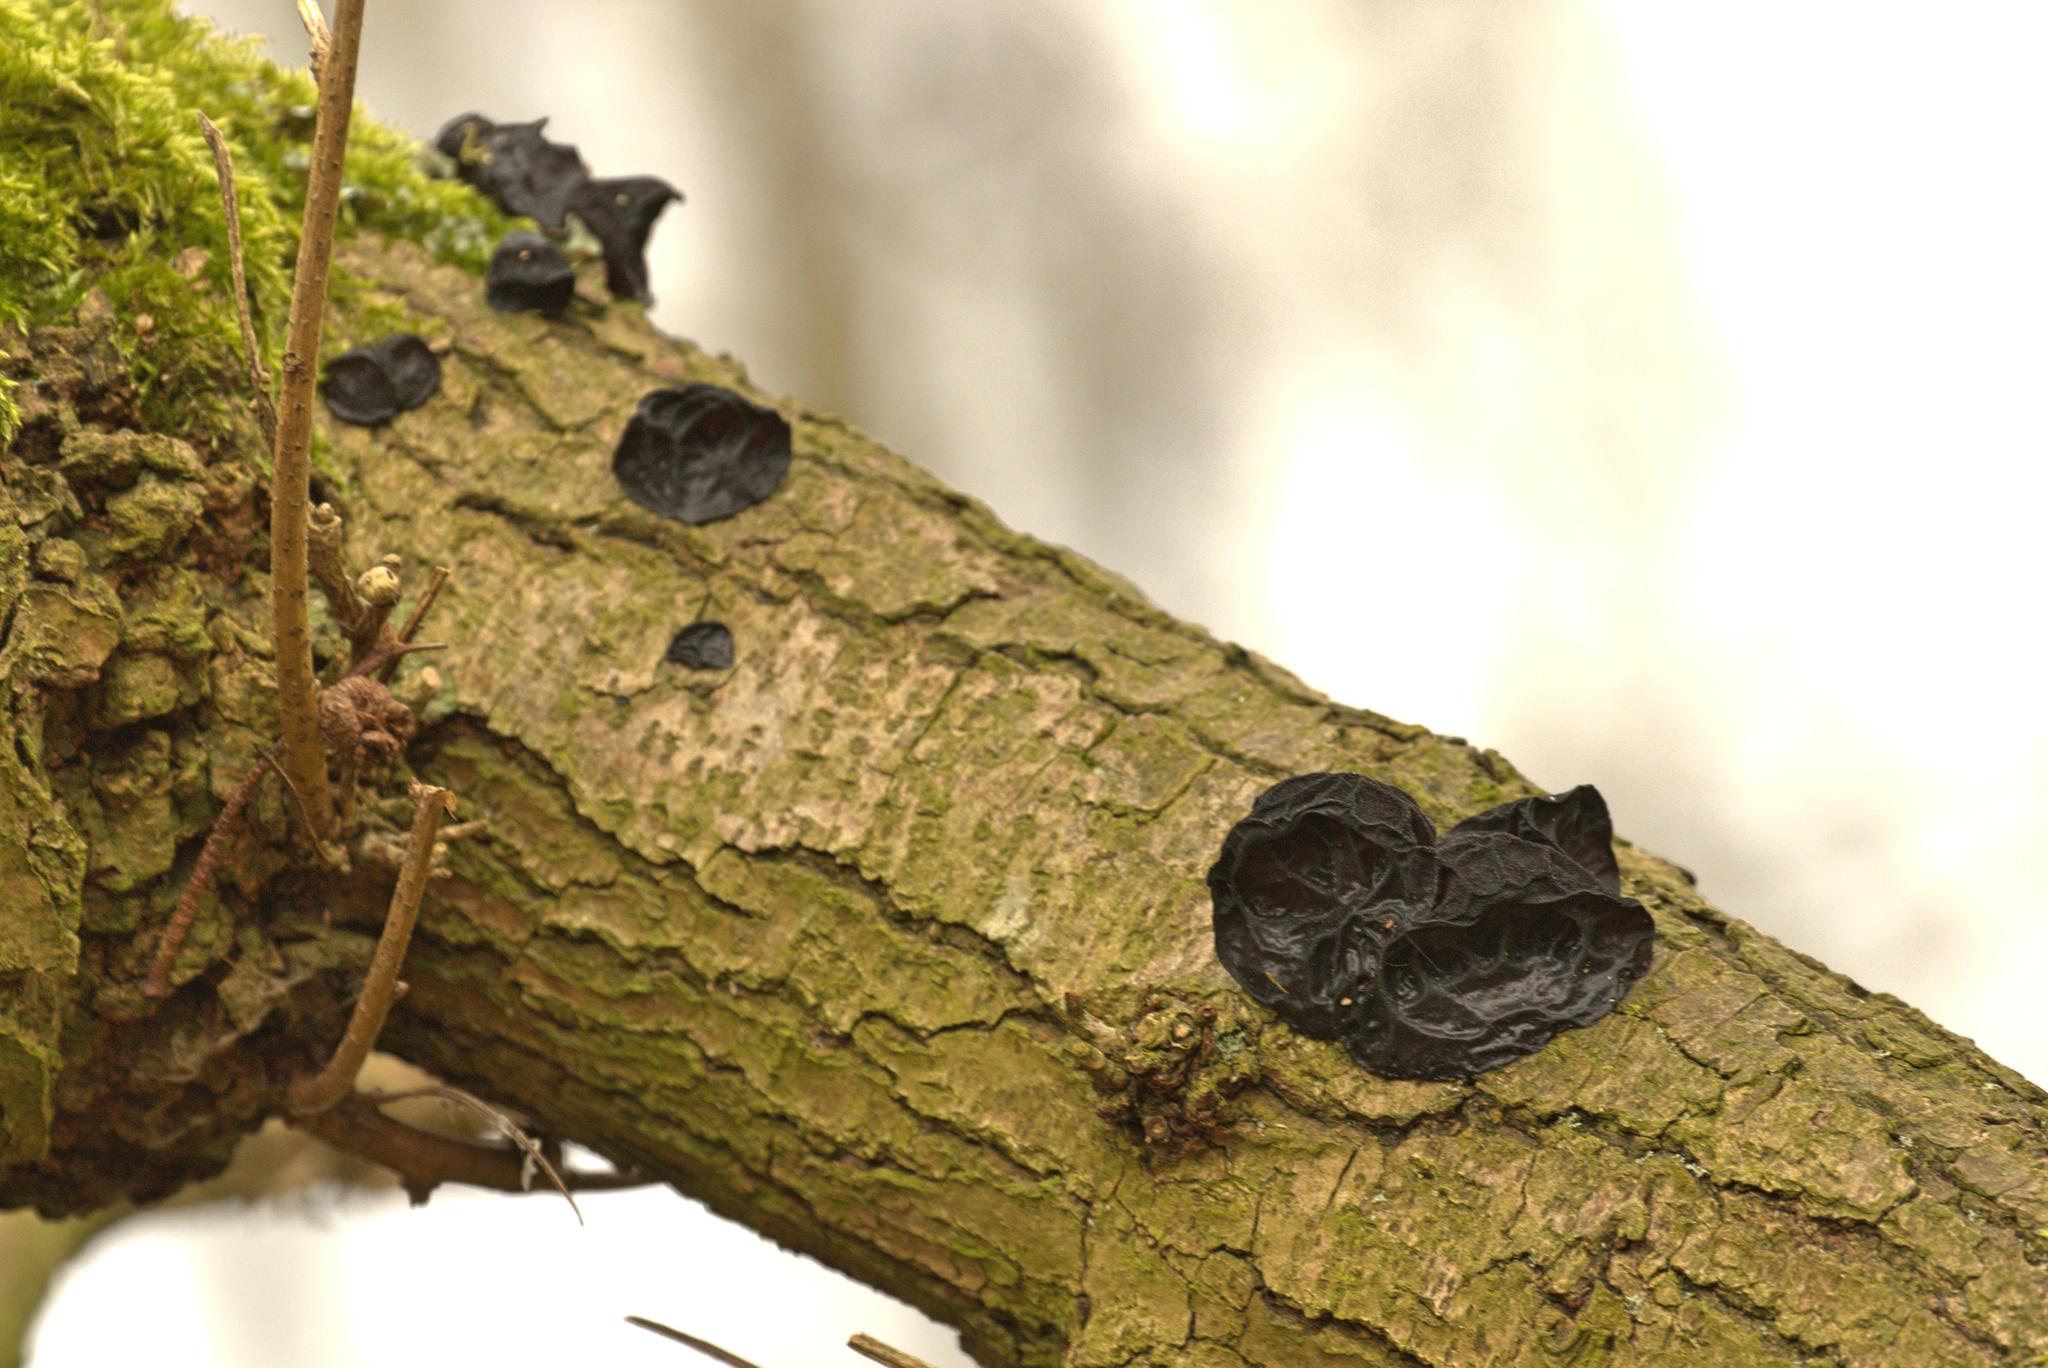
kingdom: Fungi
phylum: Basidiomycota
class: Agaricomycetes
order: Auriculariales
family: Auriculariaceae
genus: Exidia
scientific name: Exidia glandulosa
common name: Witches' butter
